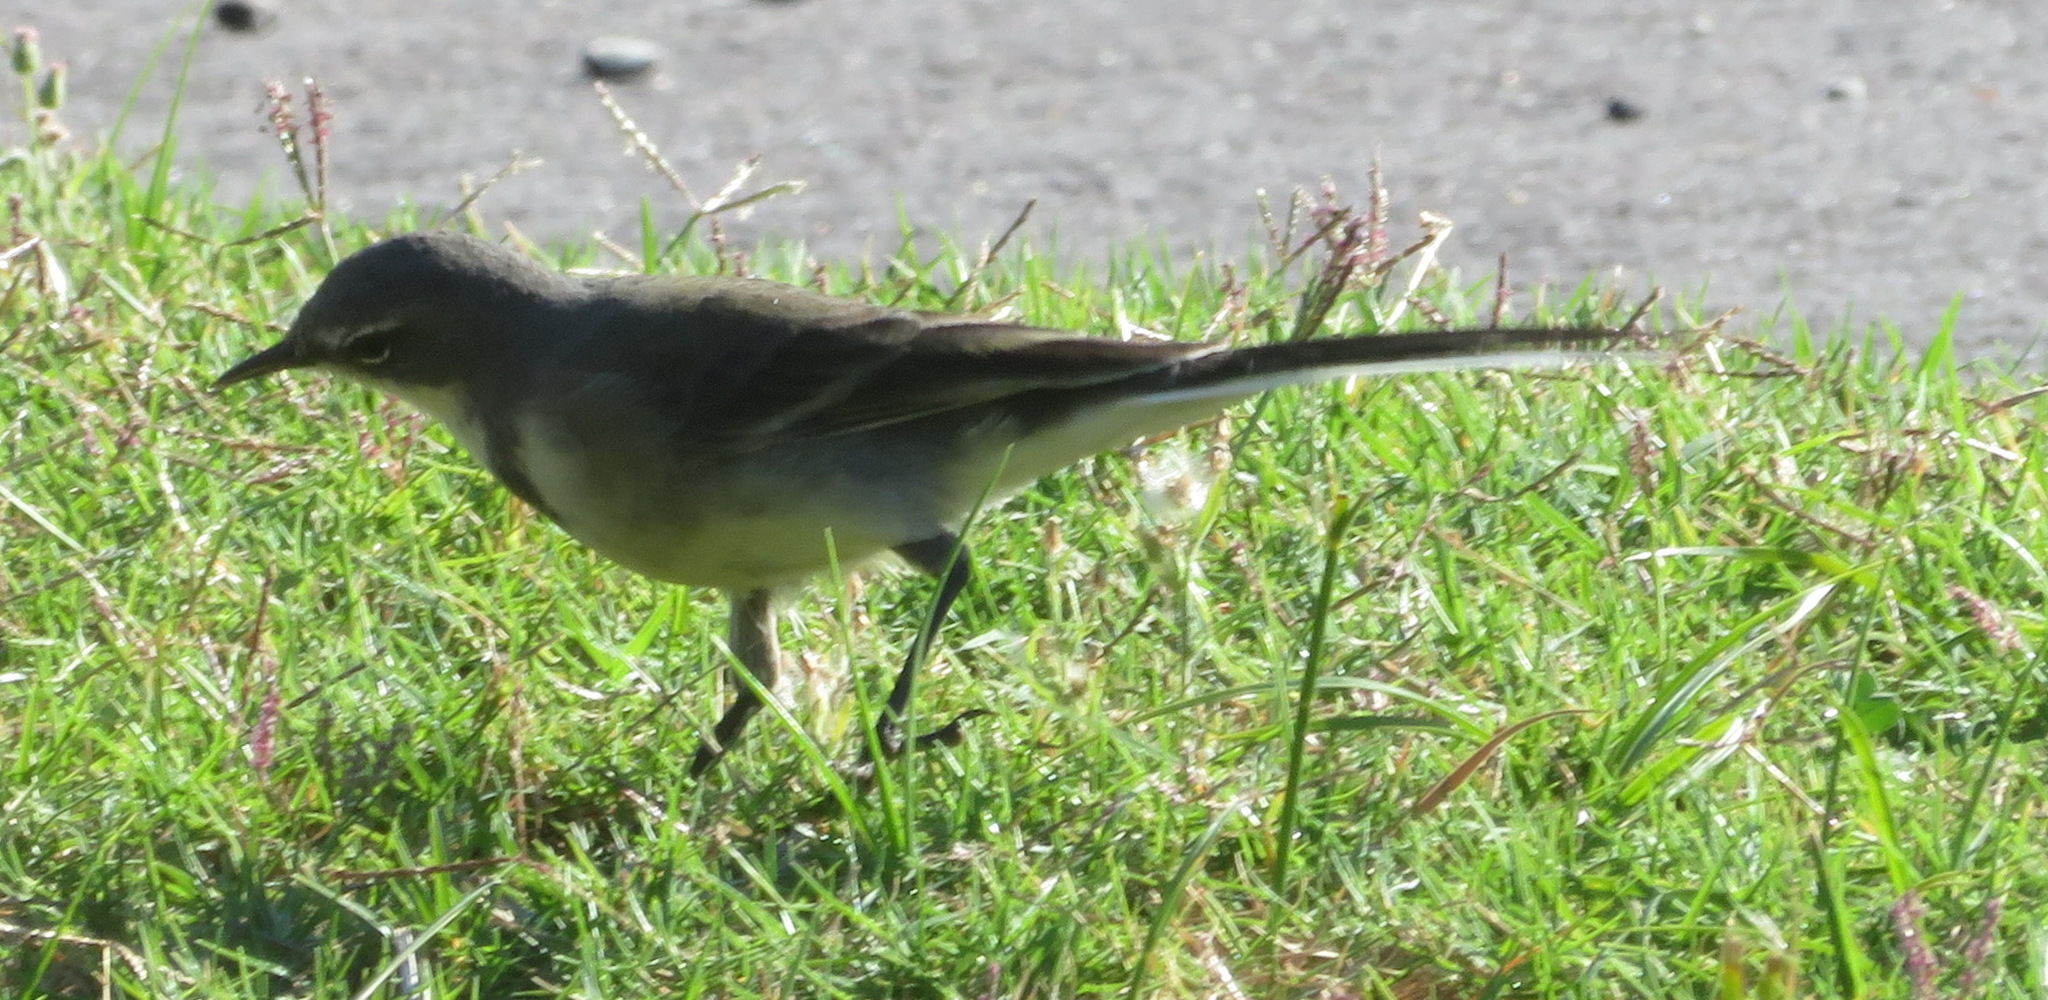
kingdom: Animalia
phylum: Chordata
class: Aves
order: Passeriformes
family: Motacillidae
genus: Motacilla
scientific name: Motacilla capensis
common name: Cape wagtail
